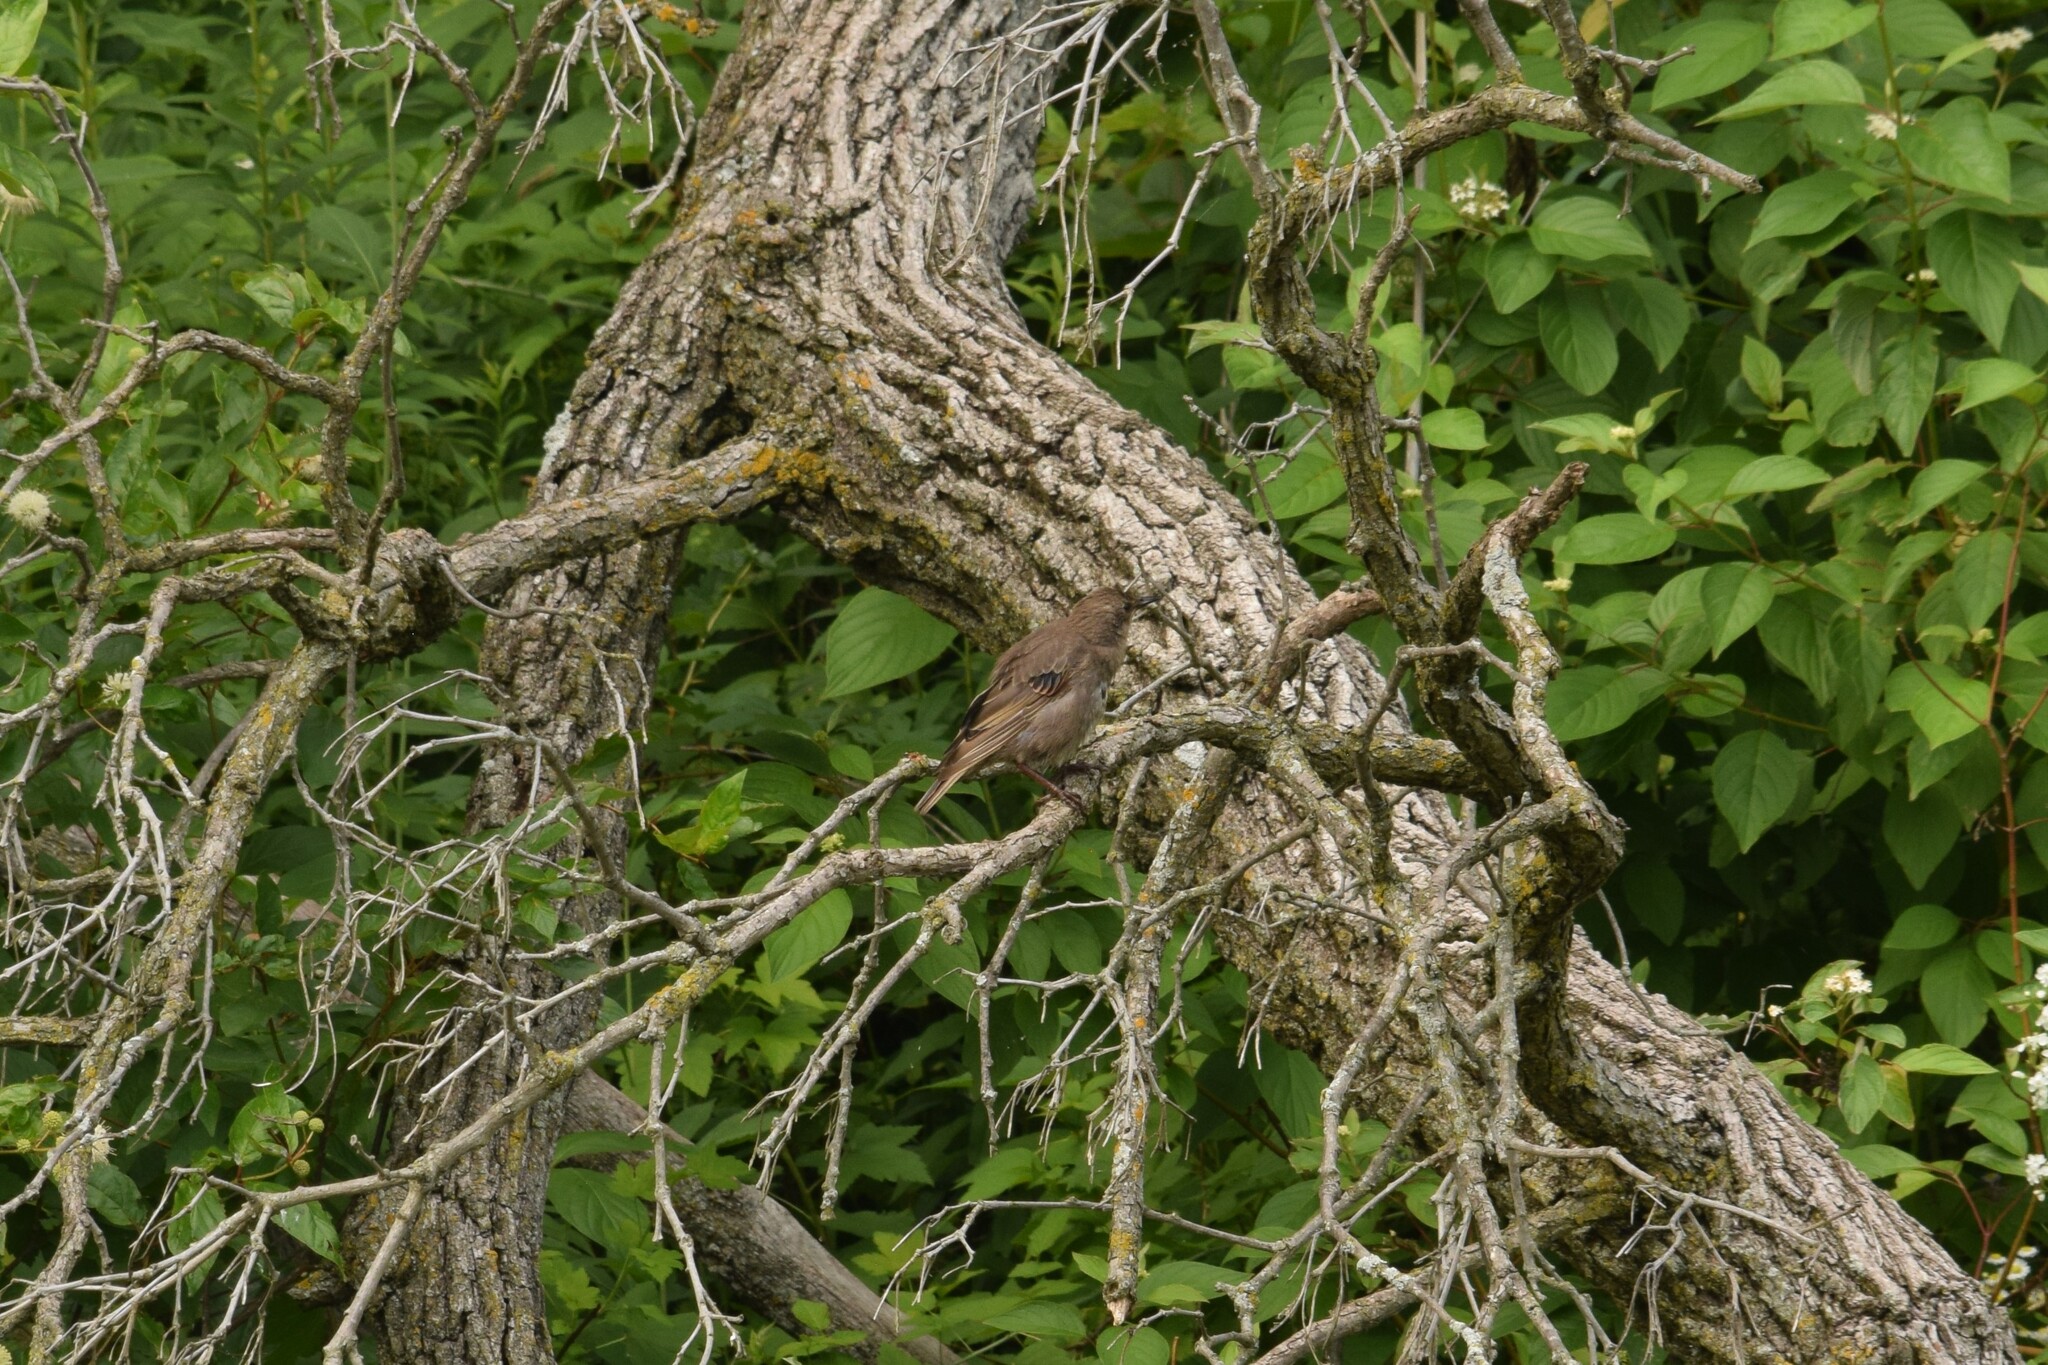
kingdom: Animalia
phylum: Chordata
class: Aves
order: Passeriformes
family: Sturnidae
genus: Sturnus
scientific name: Sturnus vulgaris
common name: Common starling
